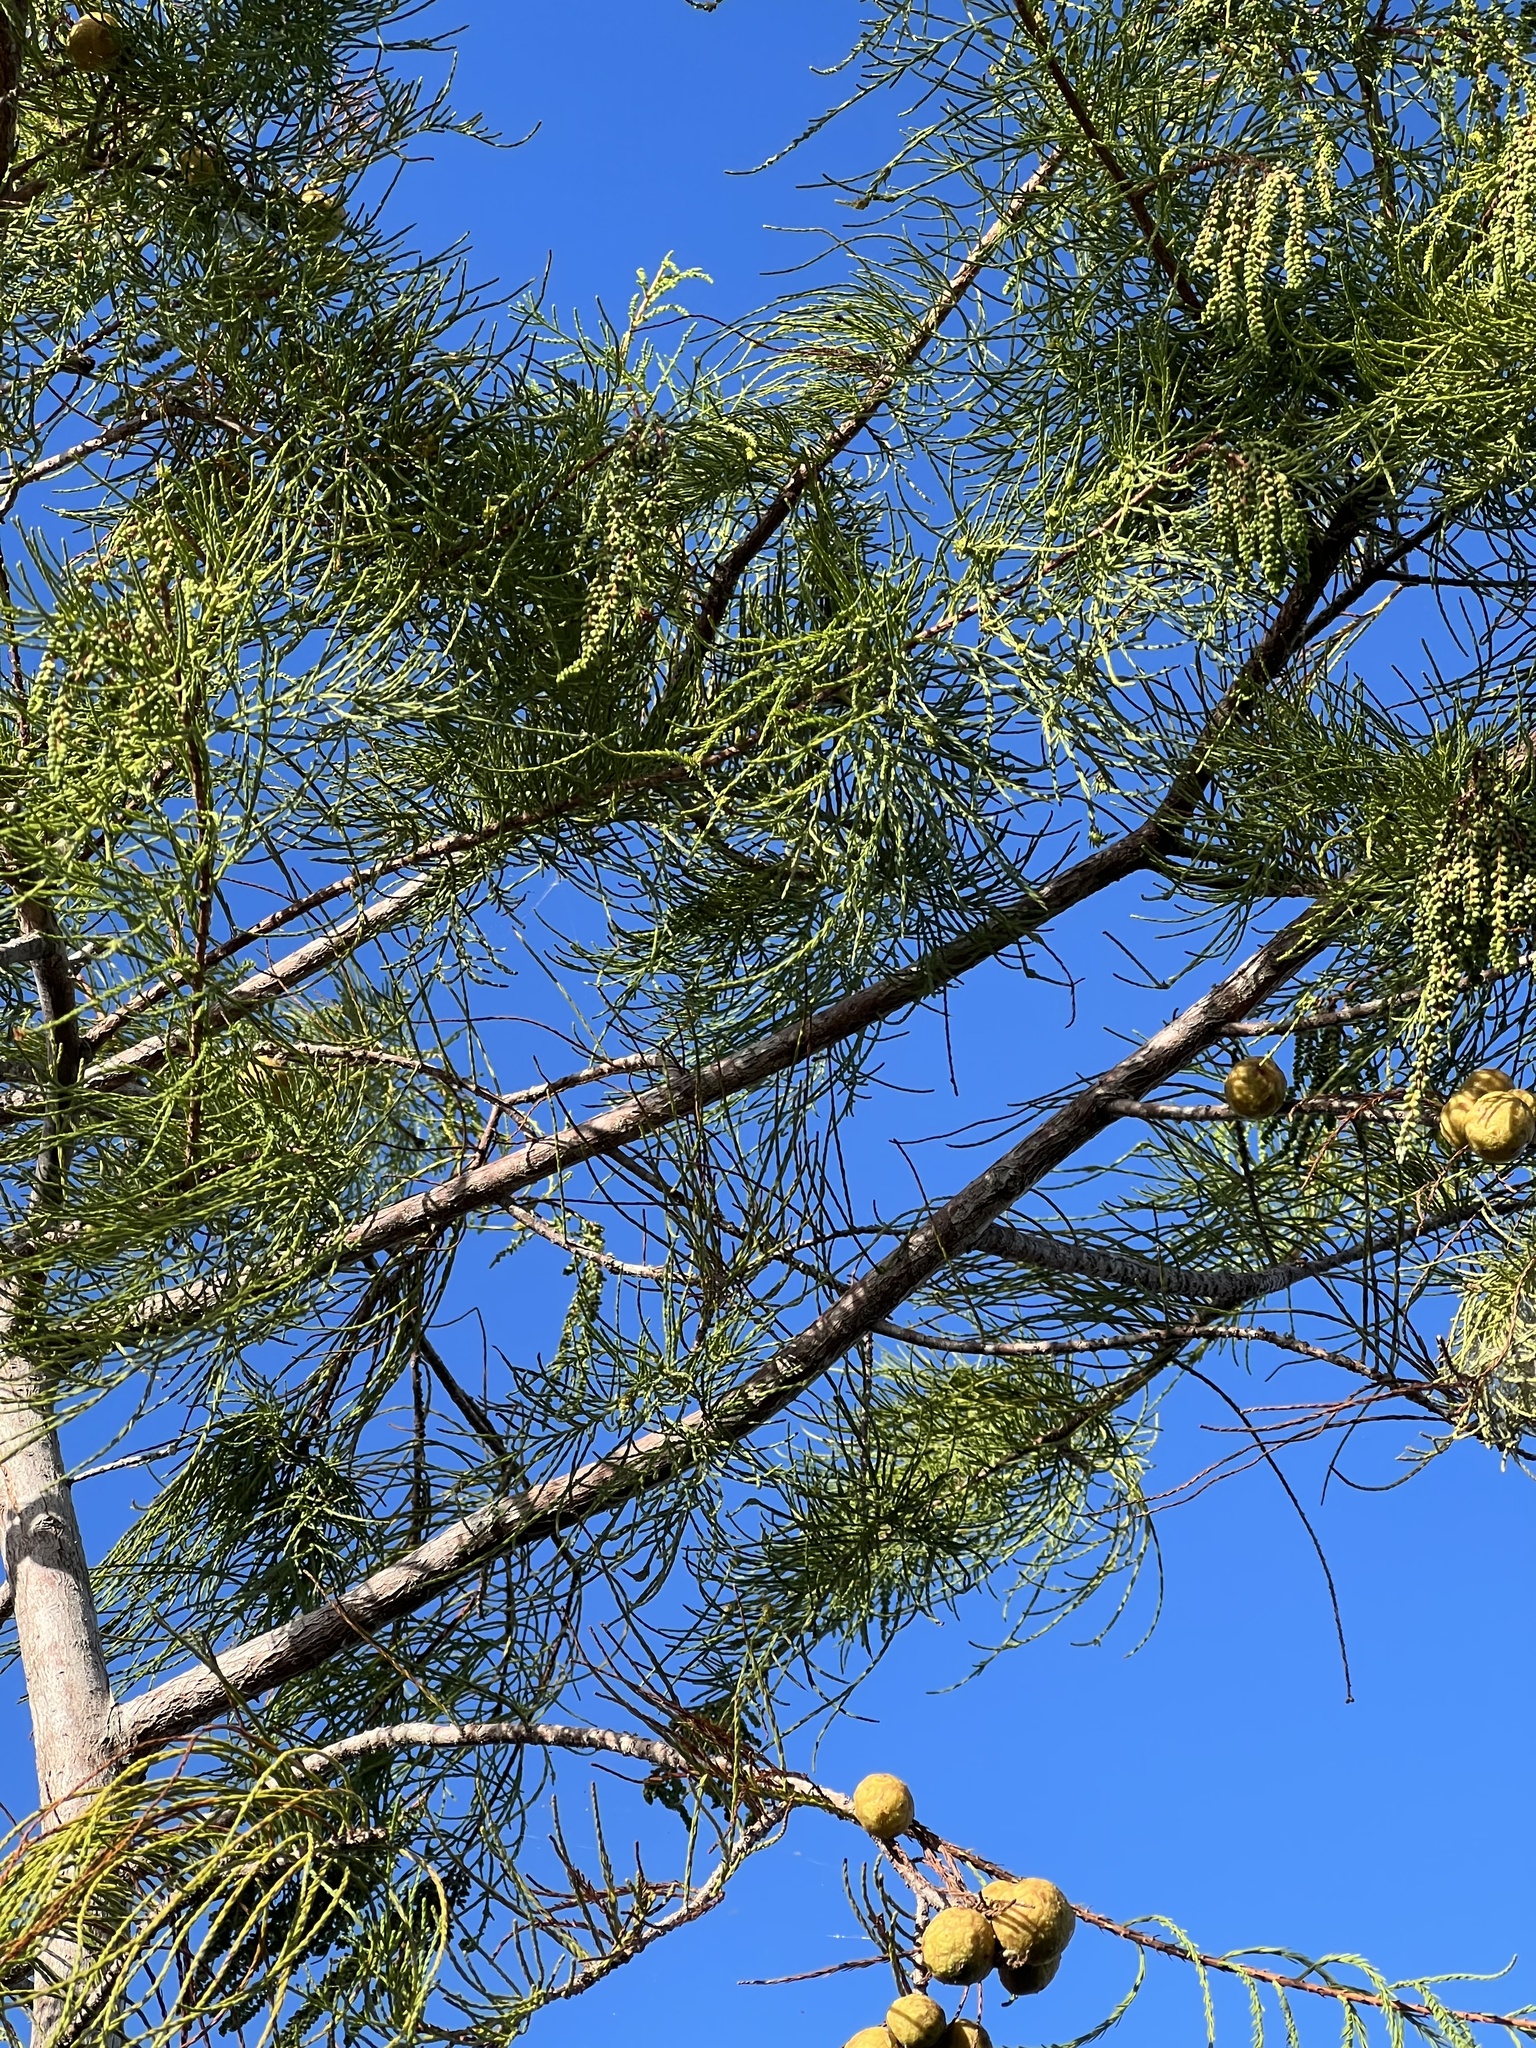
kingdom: Plantae
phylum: Tracheophyta
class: Pinopsida
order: Pinales
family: Cupressaceae
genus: Taxodium
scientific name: Taxodium distichum
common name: Bald cypress
